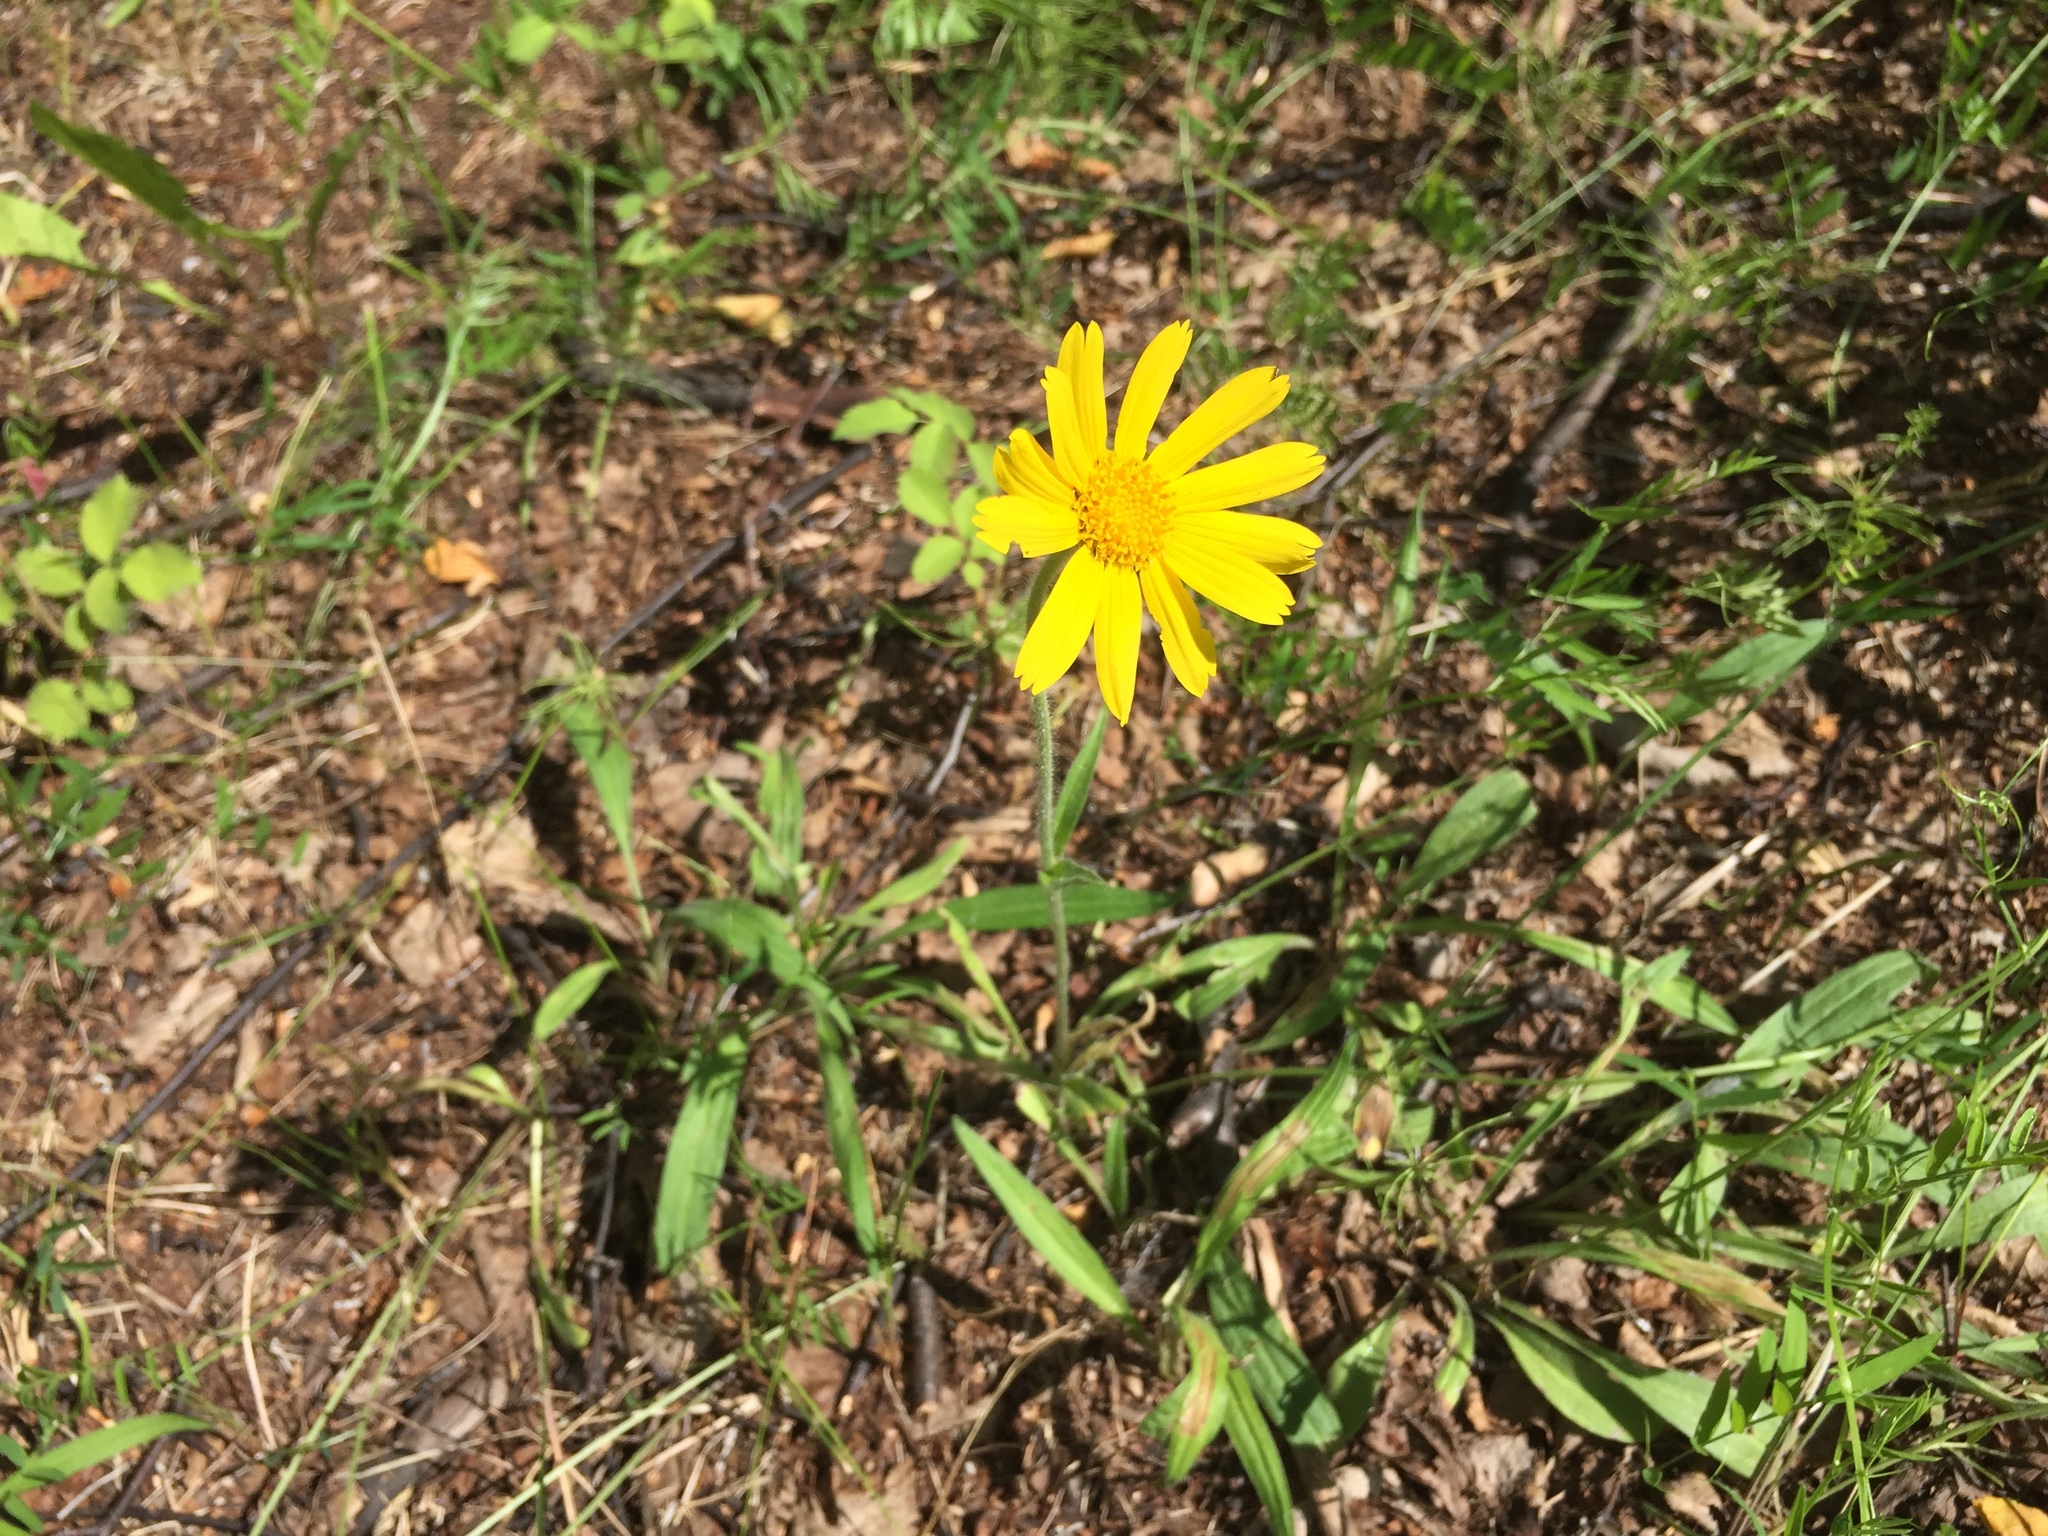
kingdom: Plantae
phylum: Tracheophyta
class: Magnoliopsida
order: Asterales
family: Asteraceae
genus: Arnica
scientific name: Arnica lonchophylla
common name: Northern arnica
